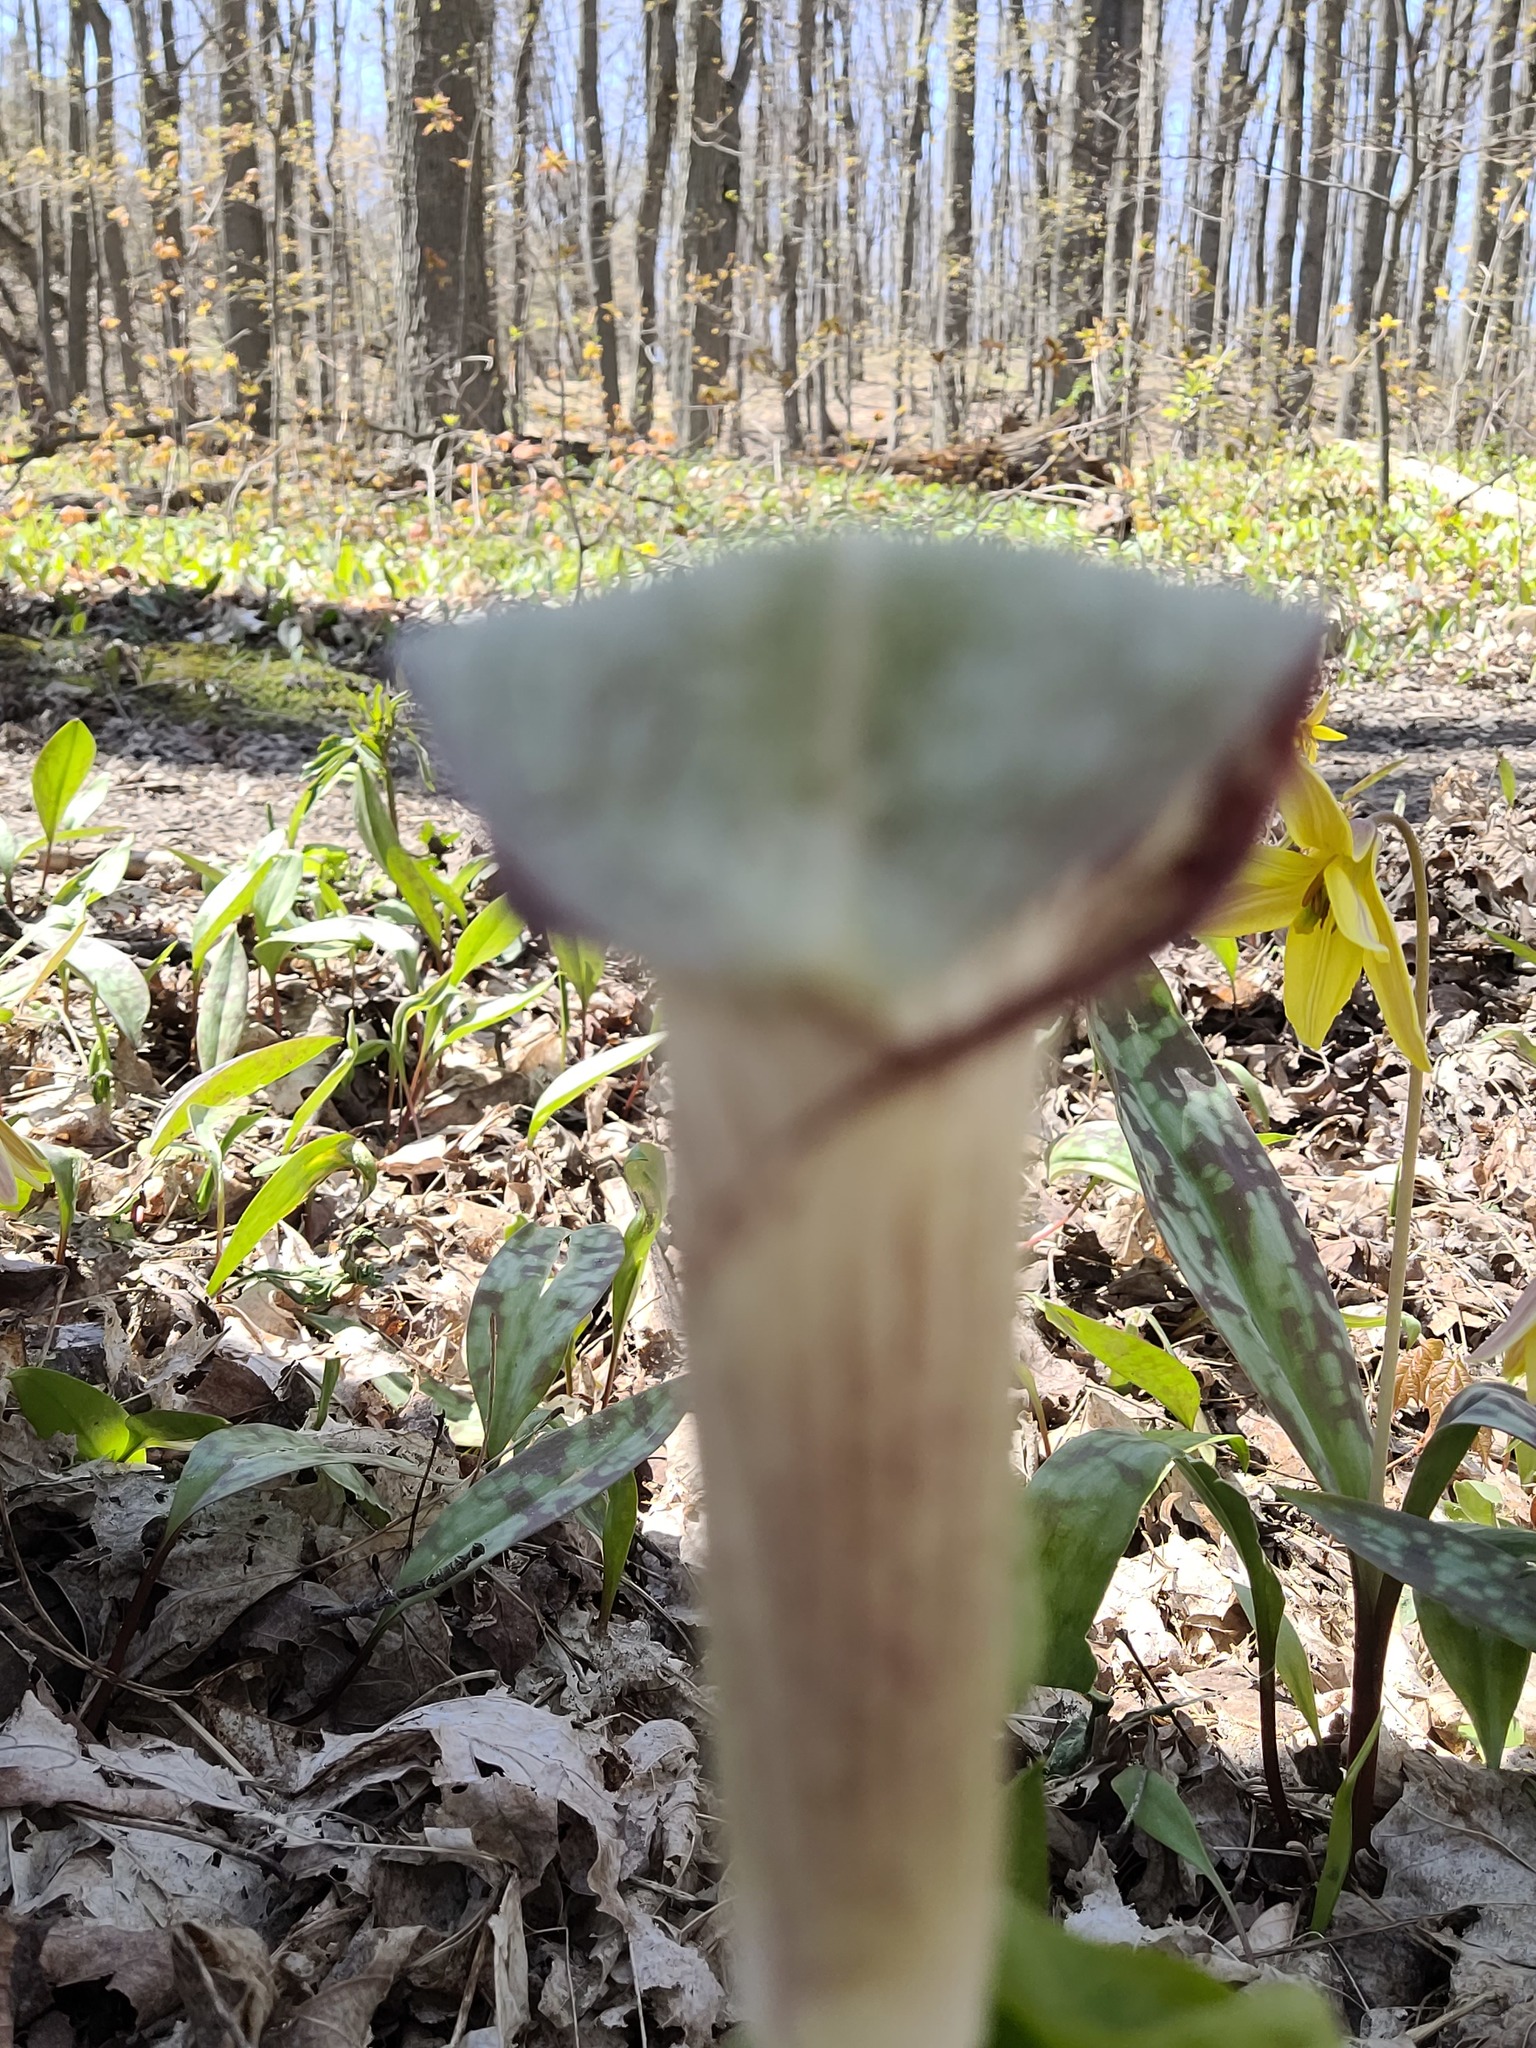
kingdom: Plantae
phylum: Tracheophyta
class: Liliopsida
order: Alismatales
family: Araceae
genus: Arisaema
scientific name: Arisaema triphyllum
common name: Jack-in-the-pulpit
